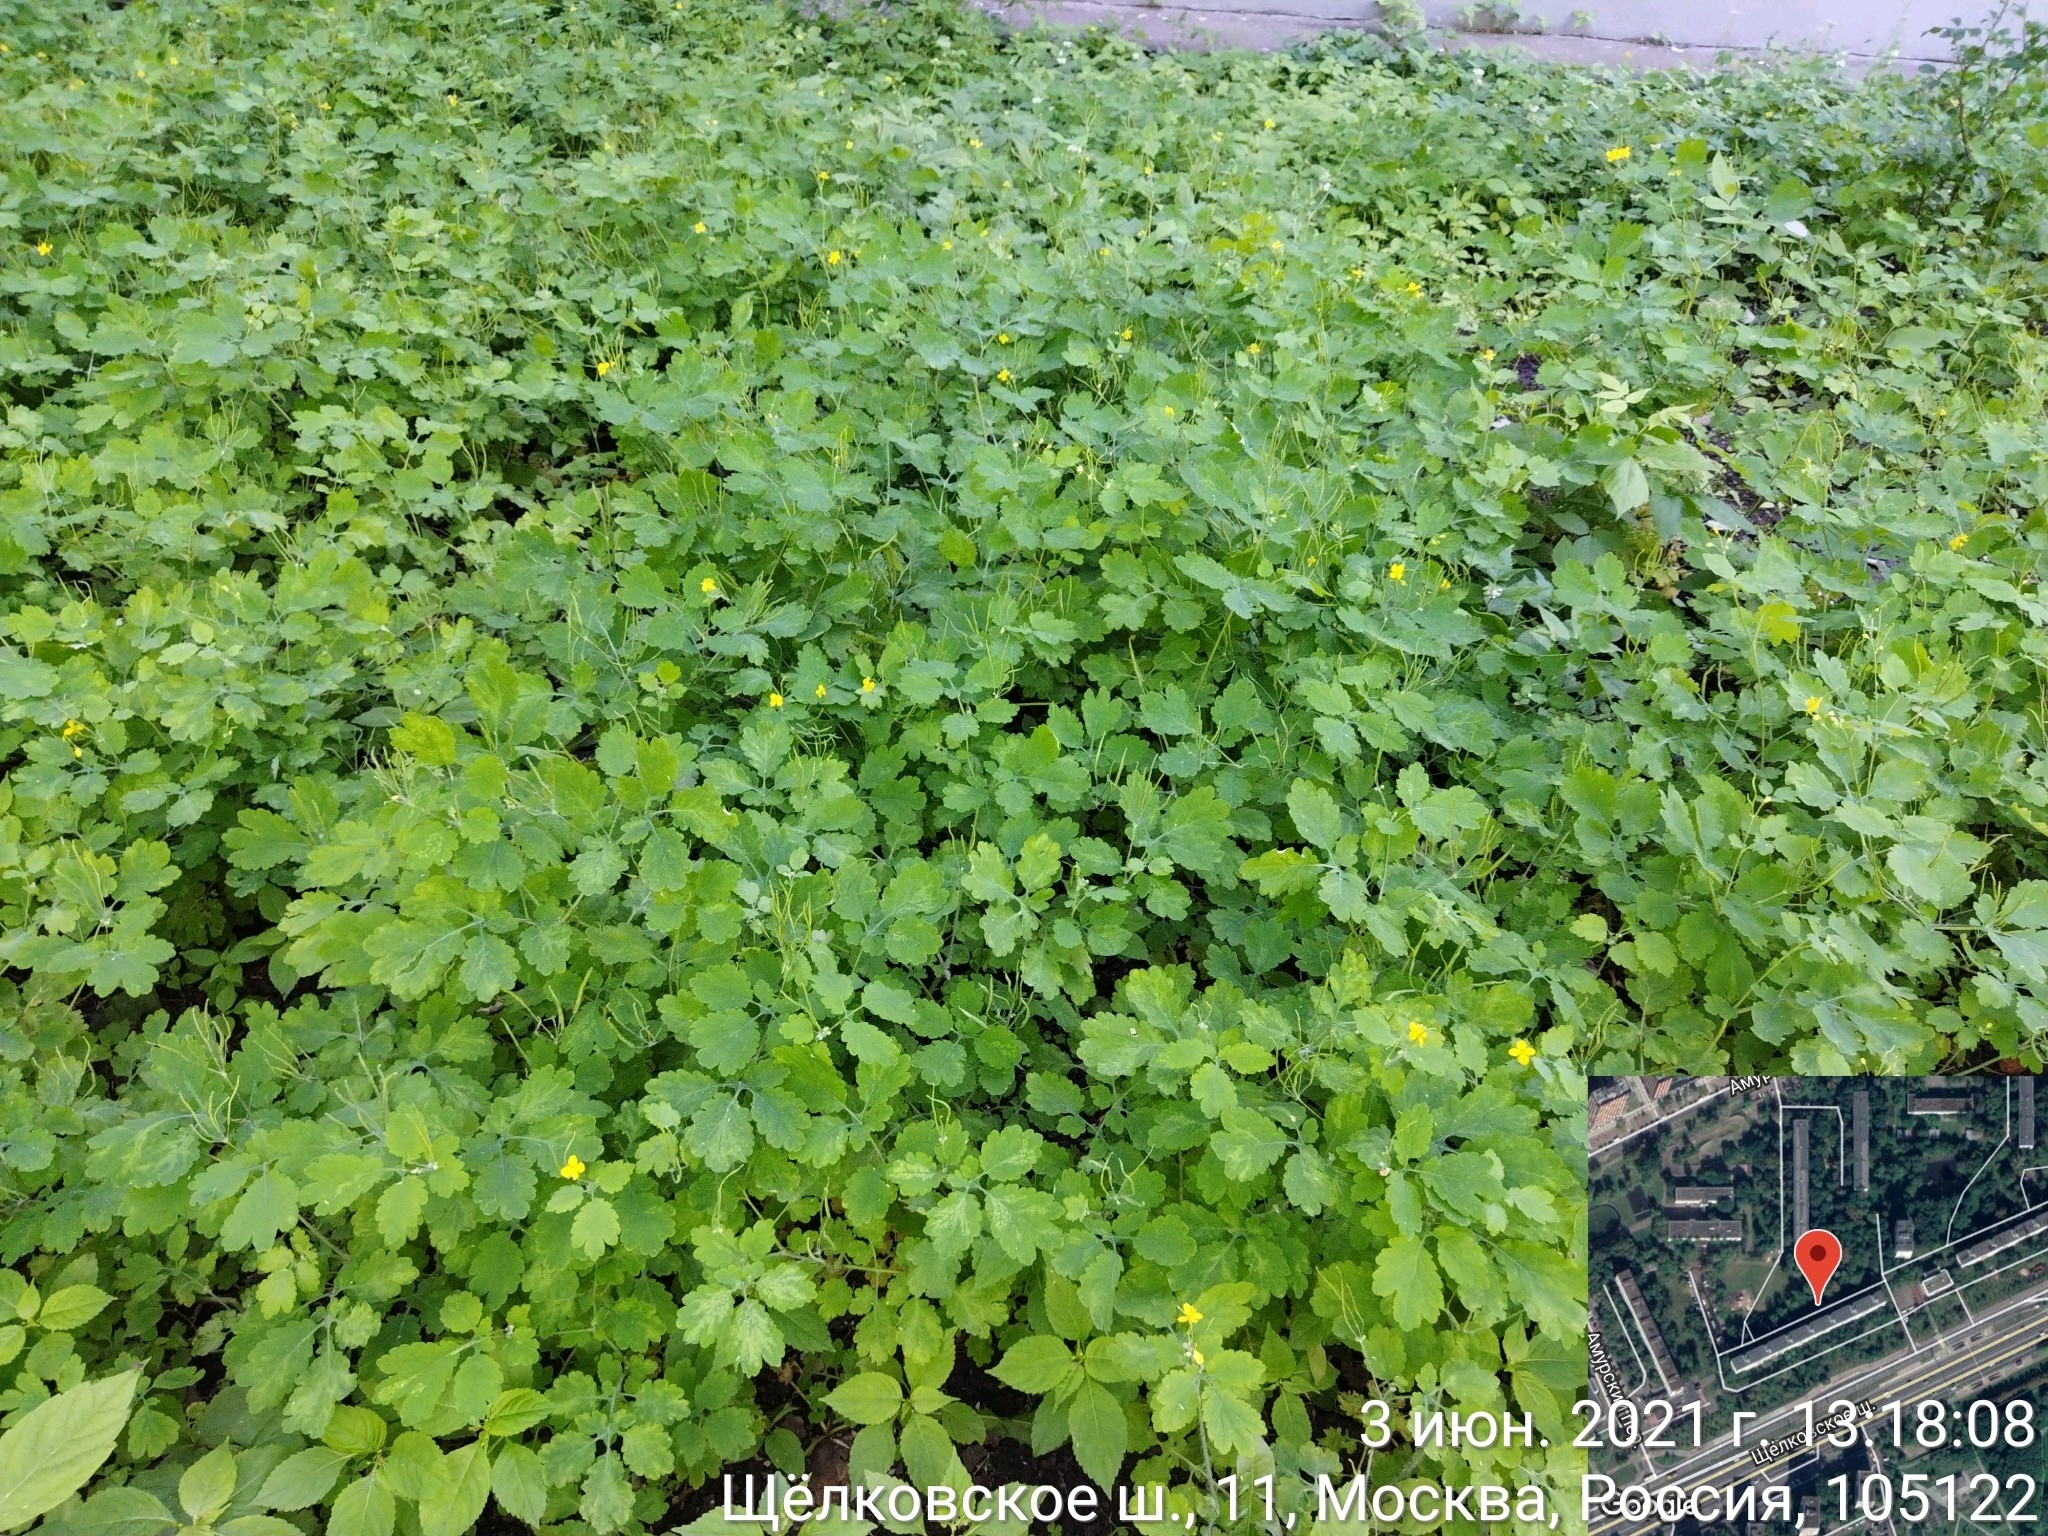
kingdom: Plantae
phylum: Tracheophyta
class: Magnoliopsida
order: Ranunculales
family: Papaveraceae
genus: Chelidonium
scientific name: Chelidonium majus
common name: Greater celandine
